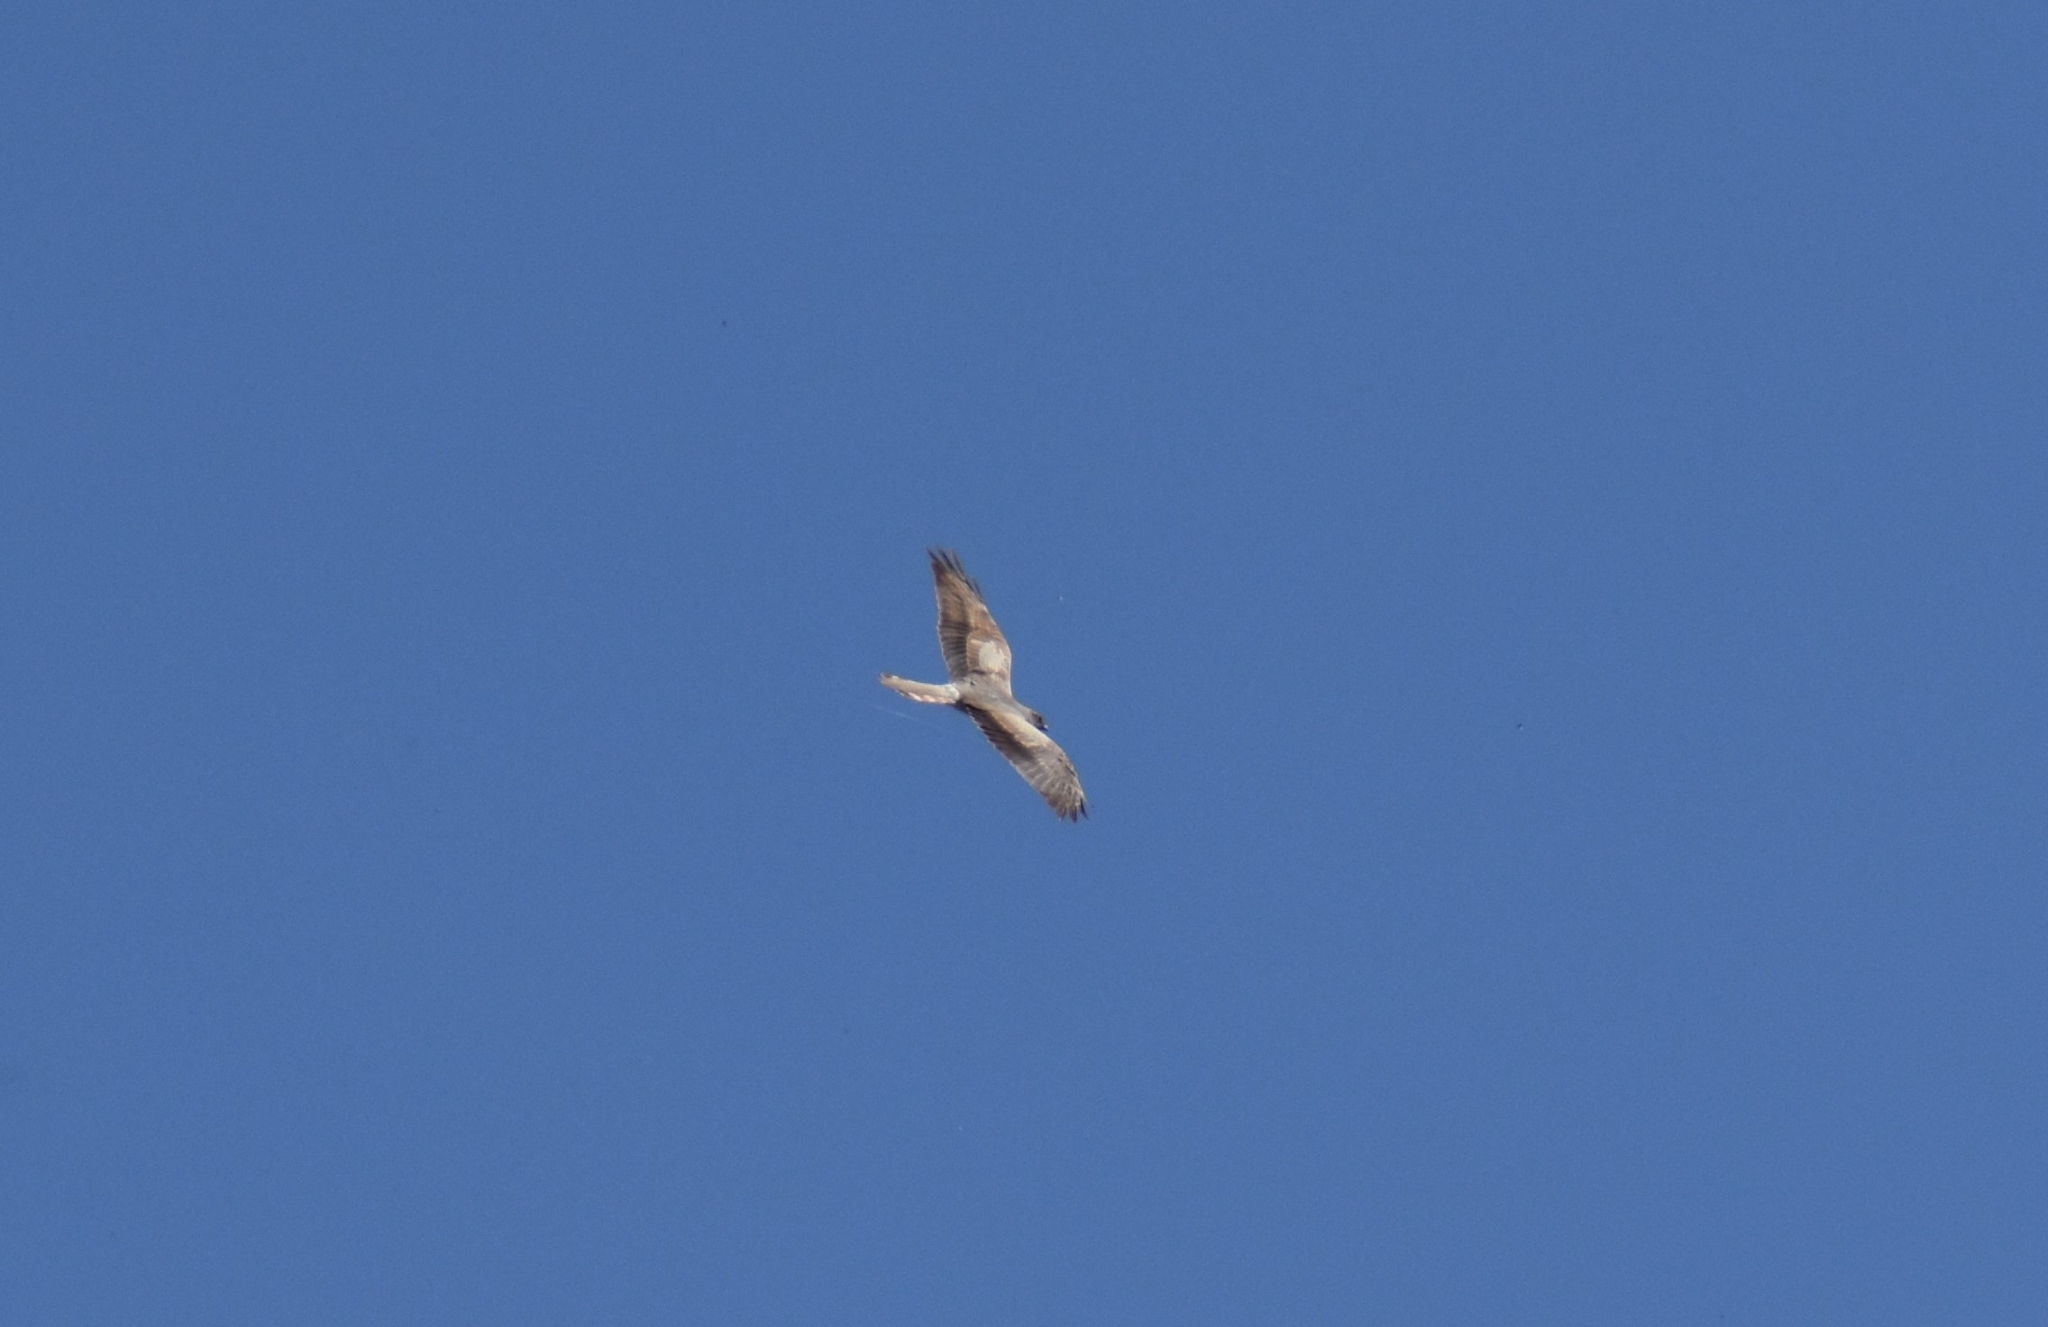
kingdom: Animalia
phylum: Chordata
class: Aves
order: Accipitriformes
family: Accipitridae
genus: Circus
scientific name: Circus pygargus
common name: Montagu's harrier
